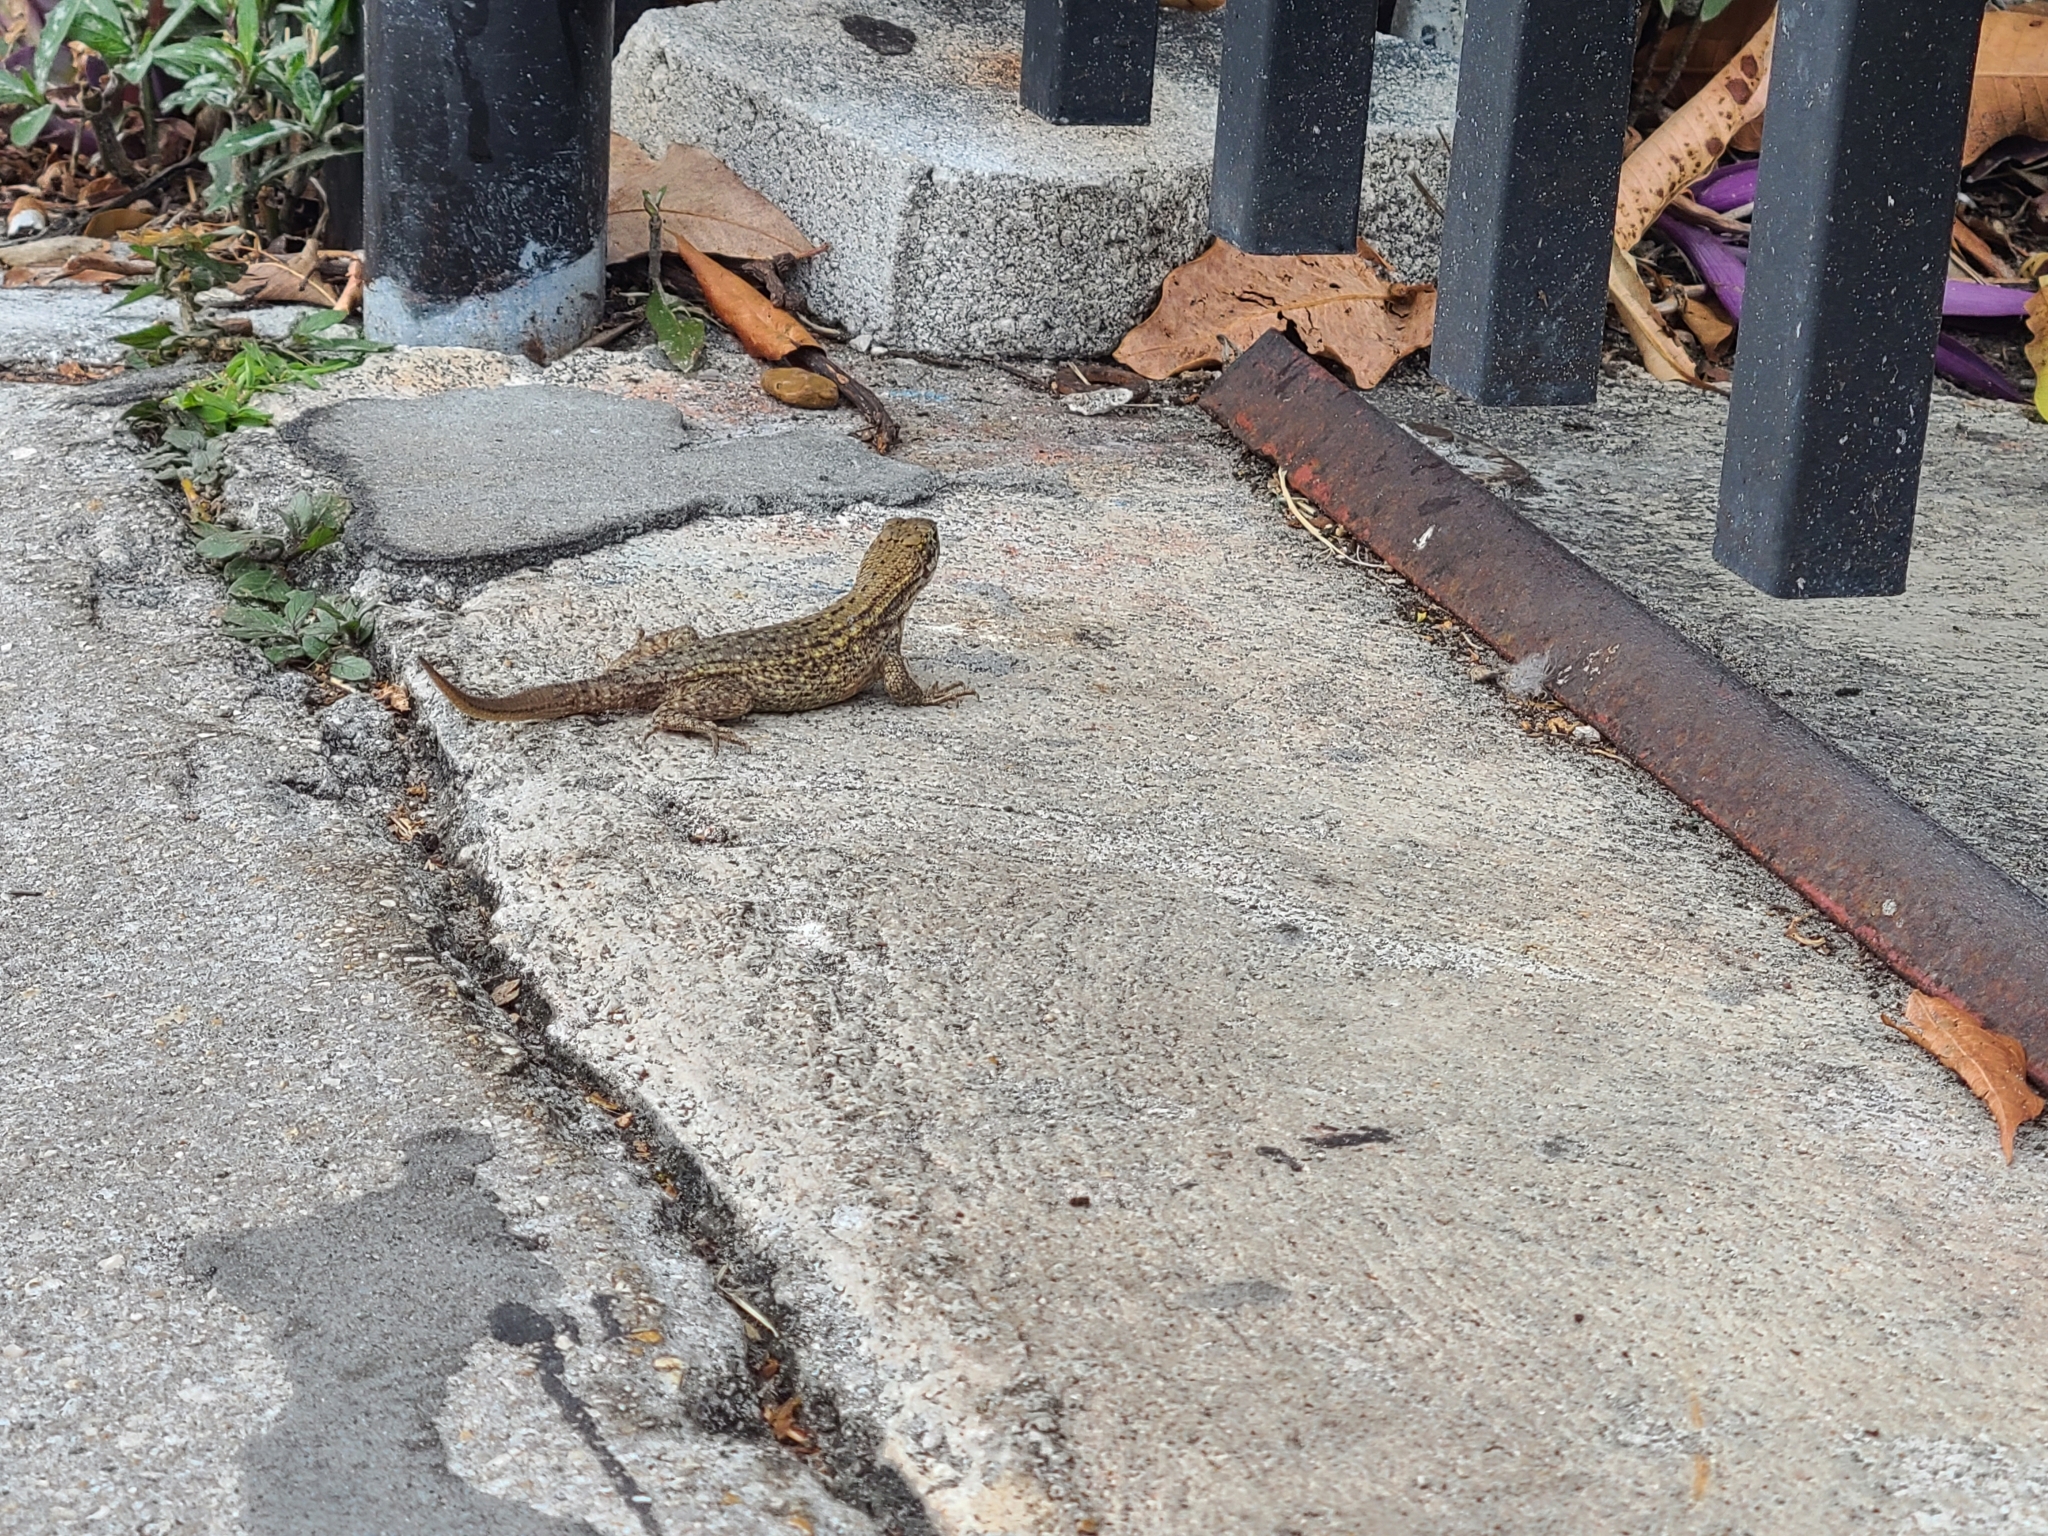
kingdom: Animalia
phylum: Chordata
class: Squamata
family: Leiocephalidae
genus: Leiocephalus
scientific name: Leiocephalus carinatus
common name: Northern curly-tailed lizard
